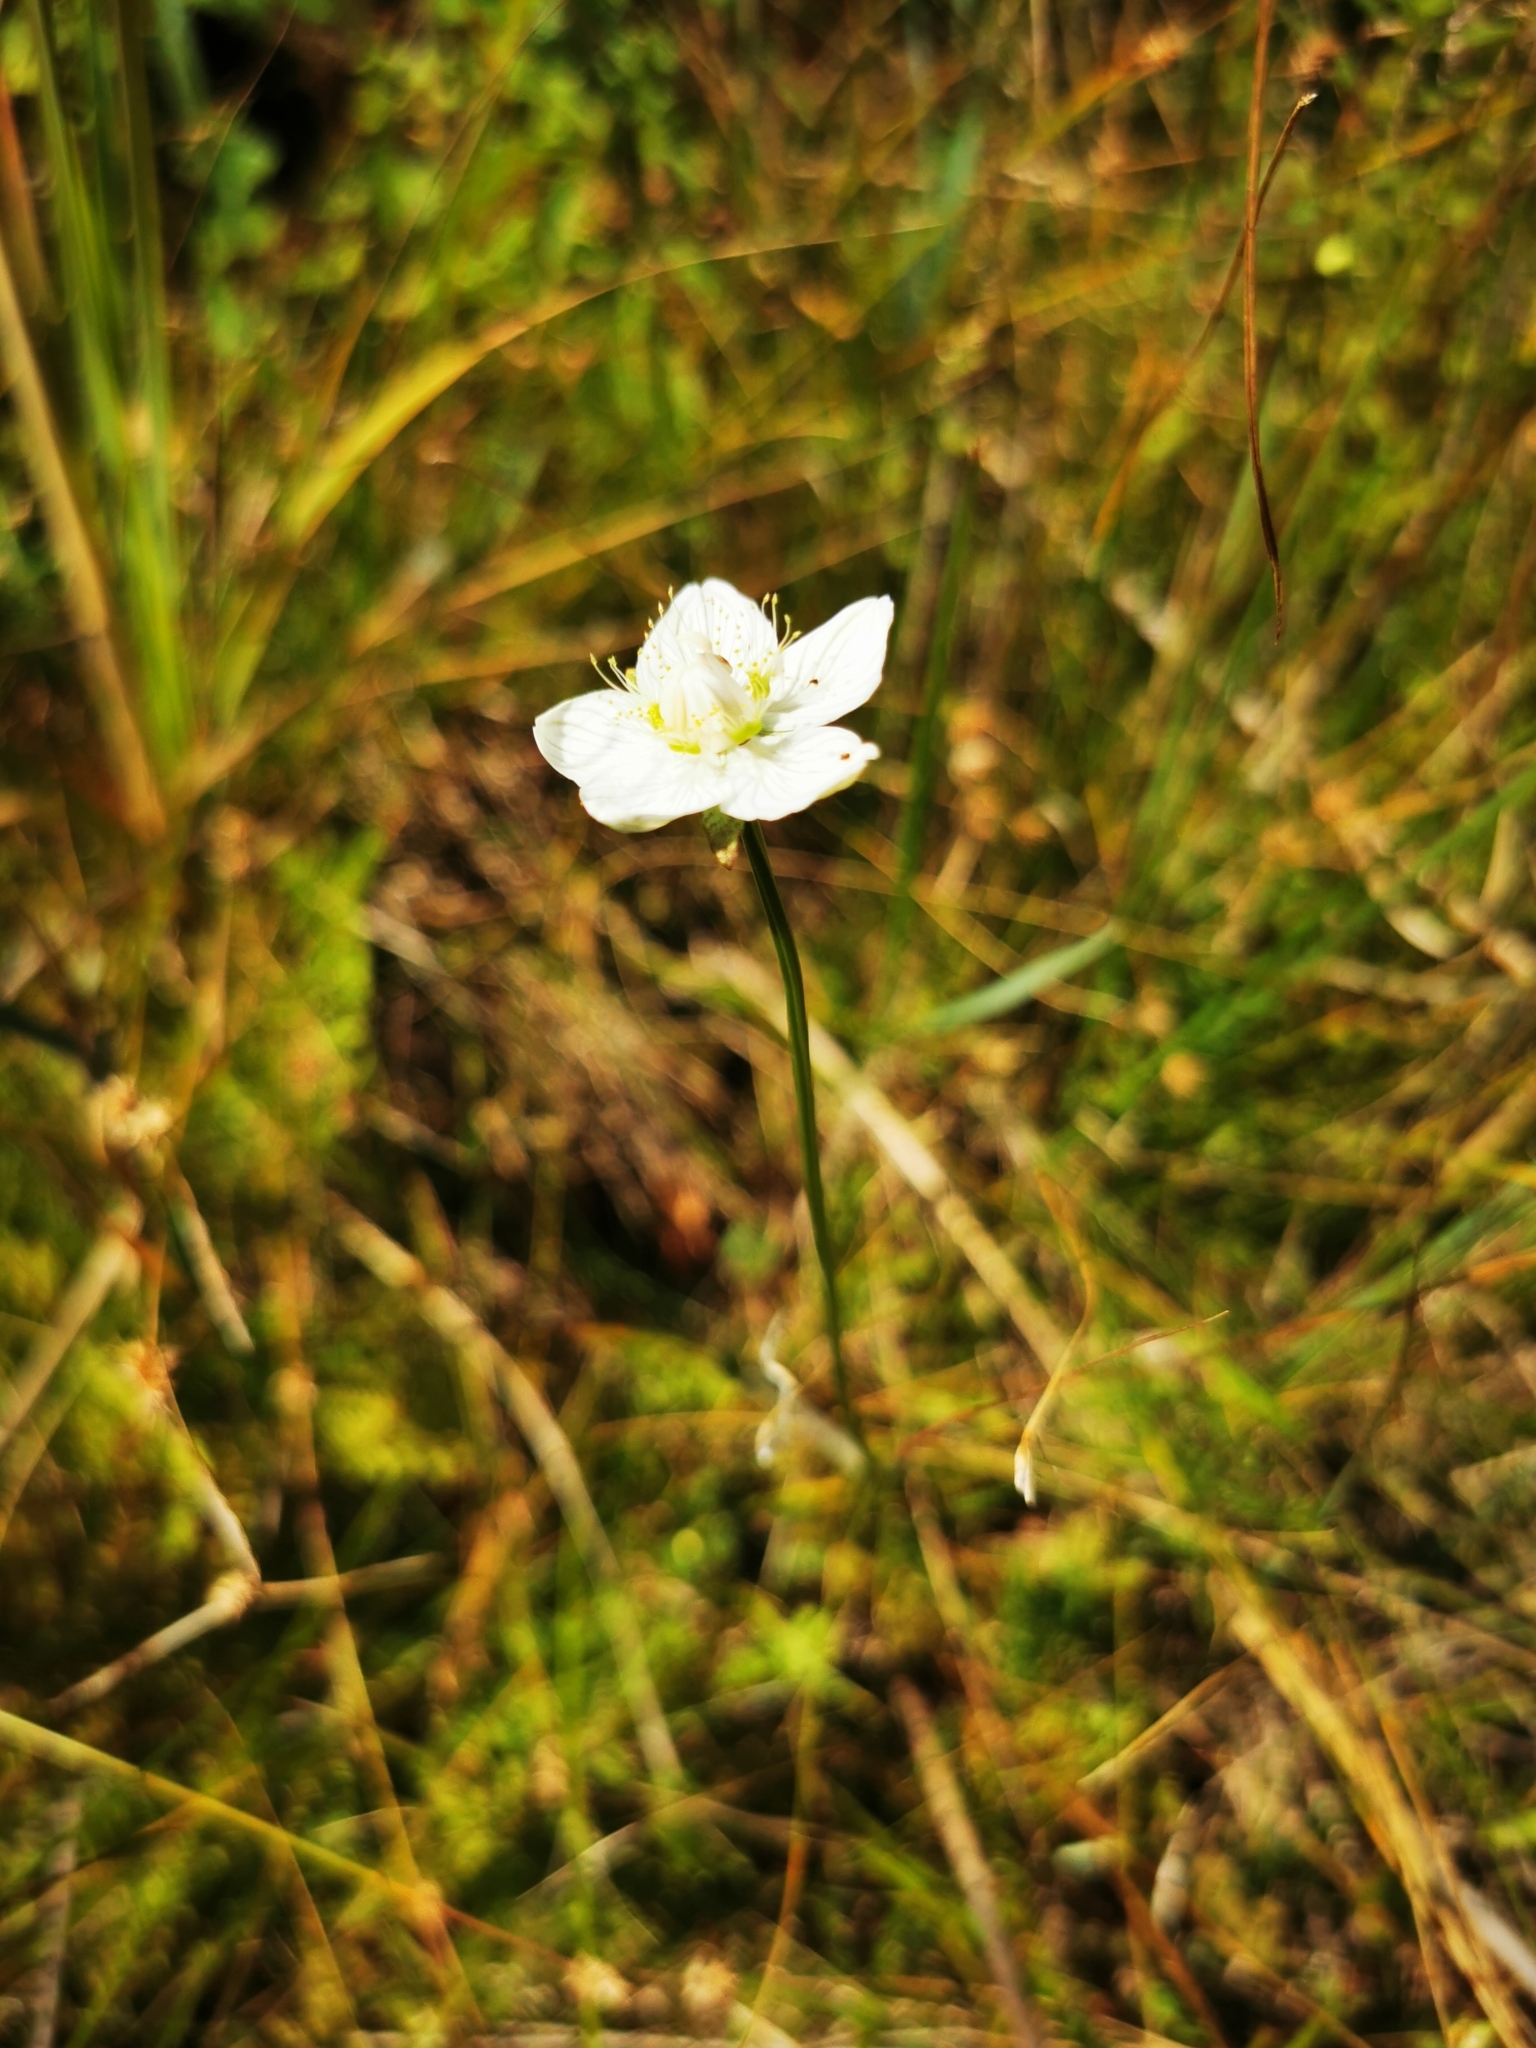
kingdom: Plantae
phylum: Tracheophyta
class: Magnoliopsida
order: Celastrales
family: Parnassiaceae
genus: Parnassia
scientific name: Parnassia palustris
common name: Grass-of-parnassus
